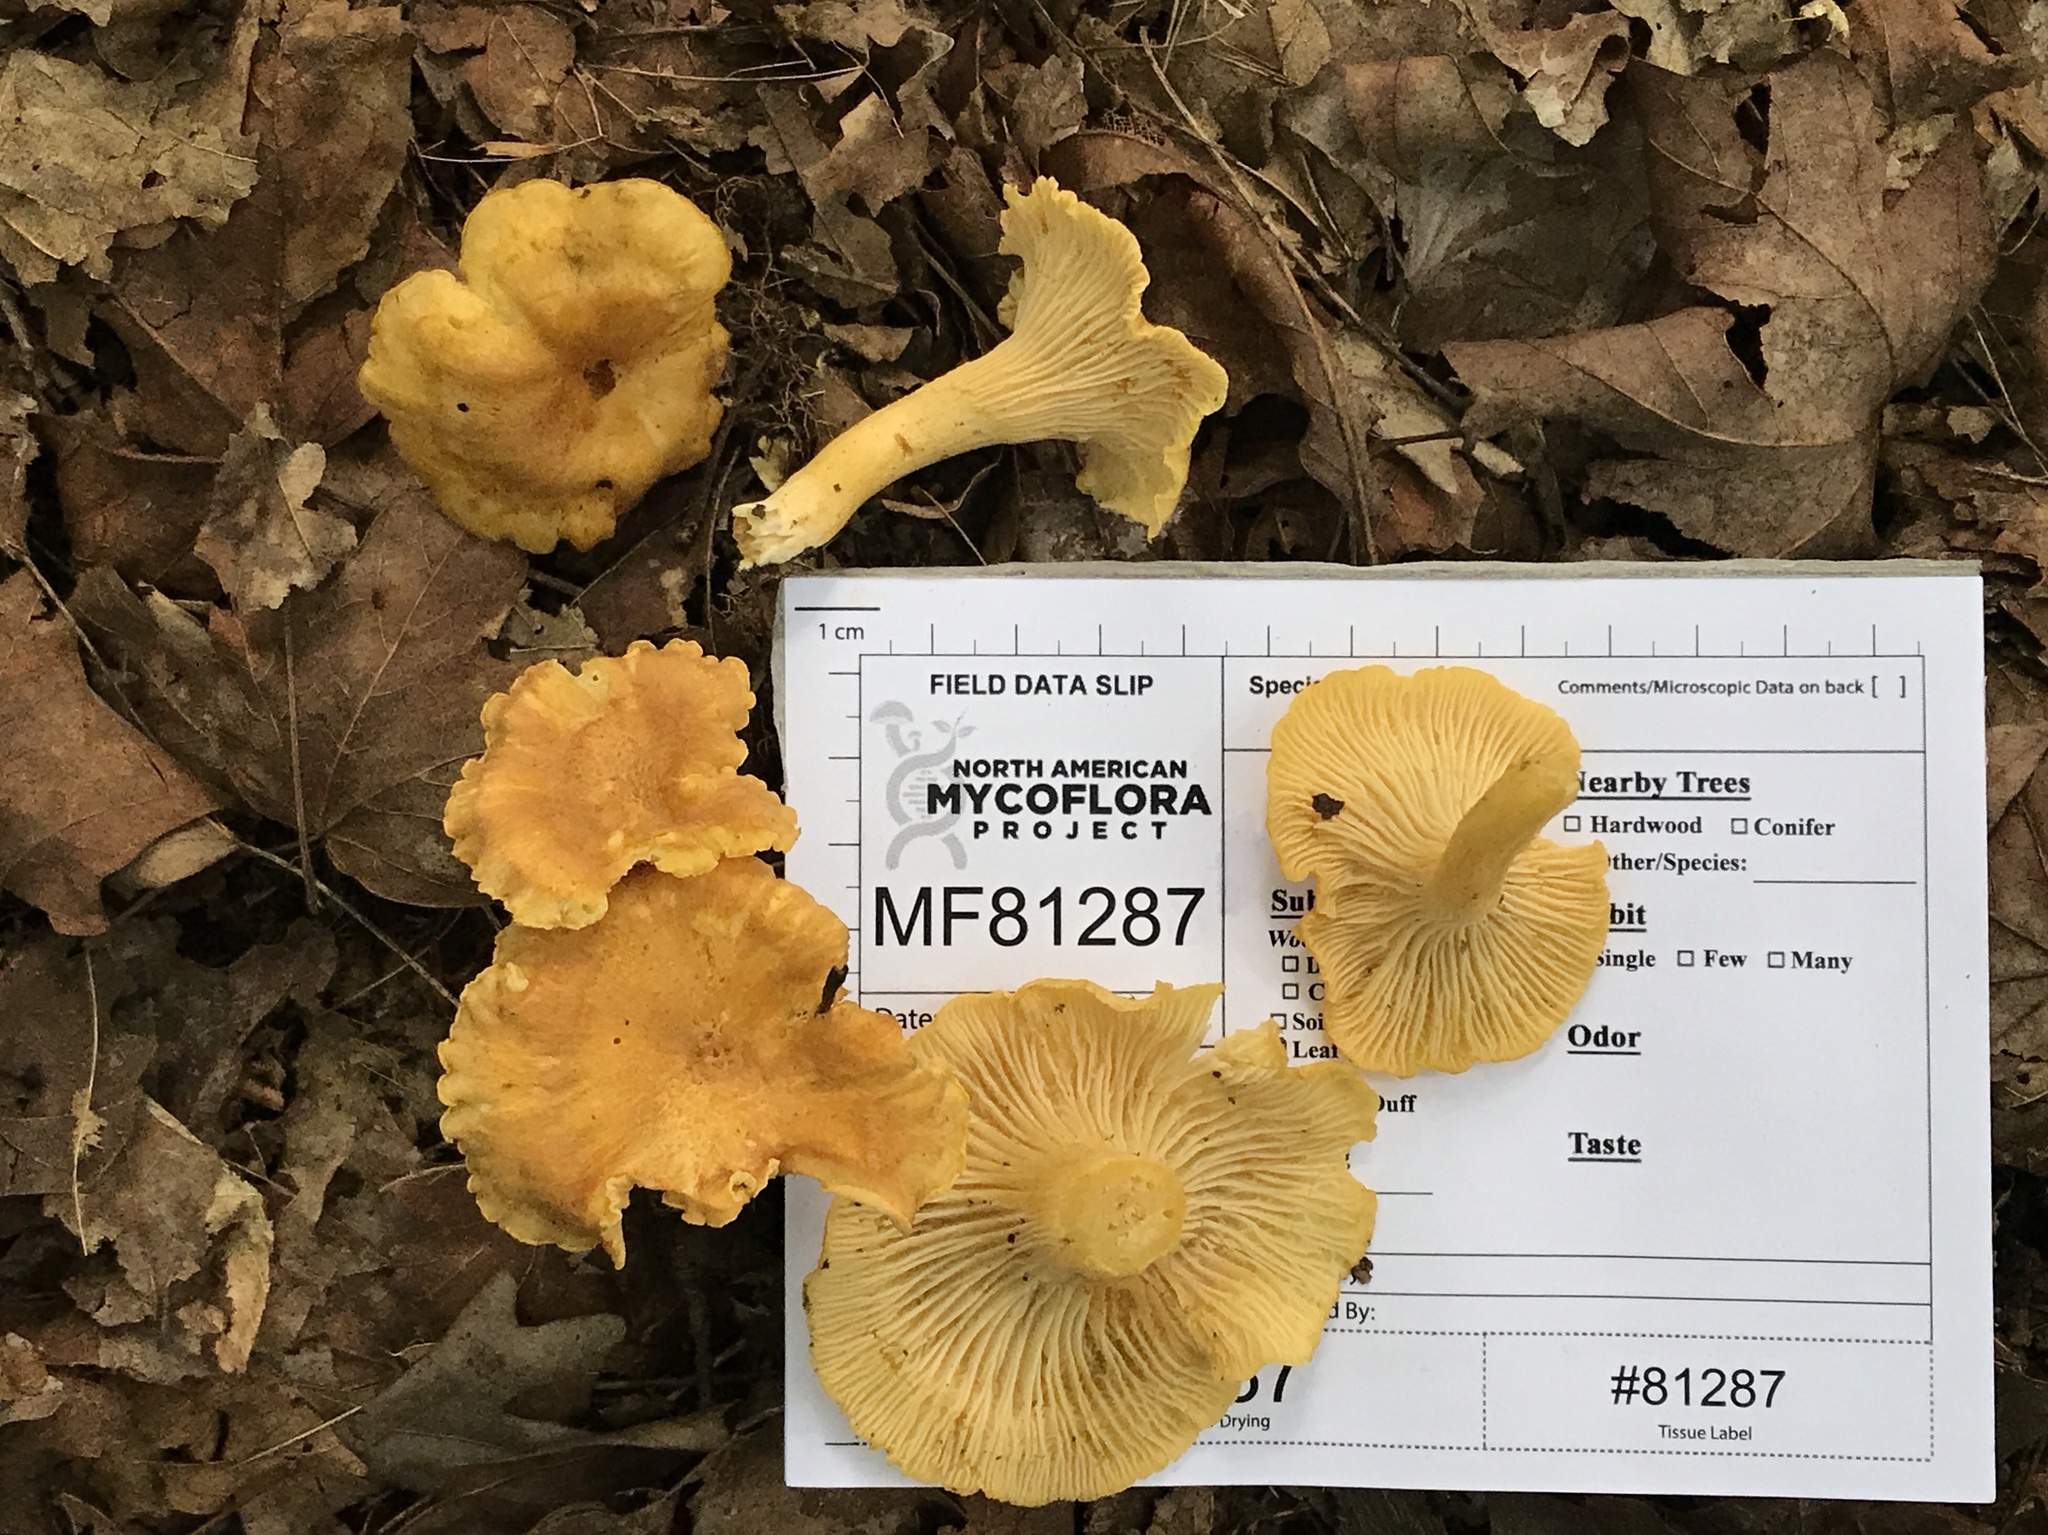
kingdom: Fungi
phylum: Basidiomycota
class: Agaricomycetes
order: Cantharellales
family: Hydnaceae
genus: Cantharellus
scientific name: Cantharellus lewisii
